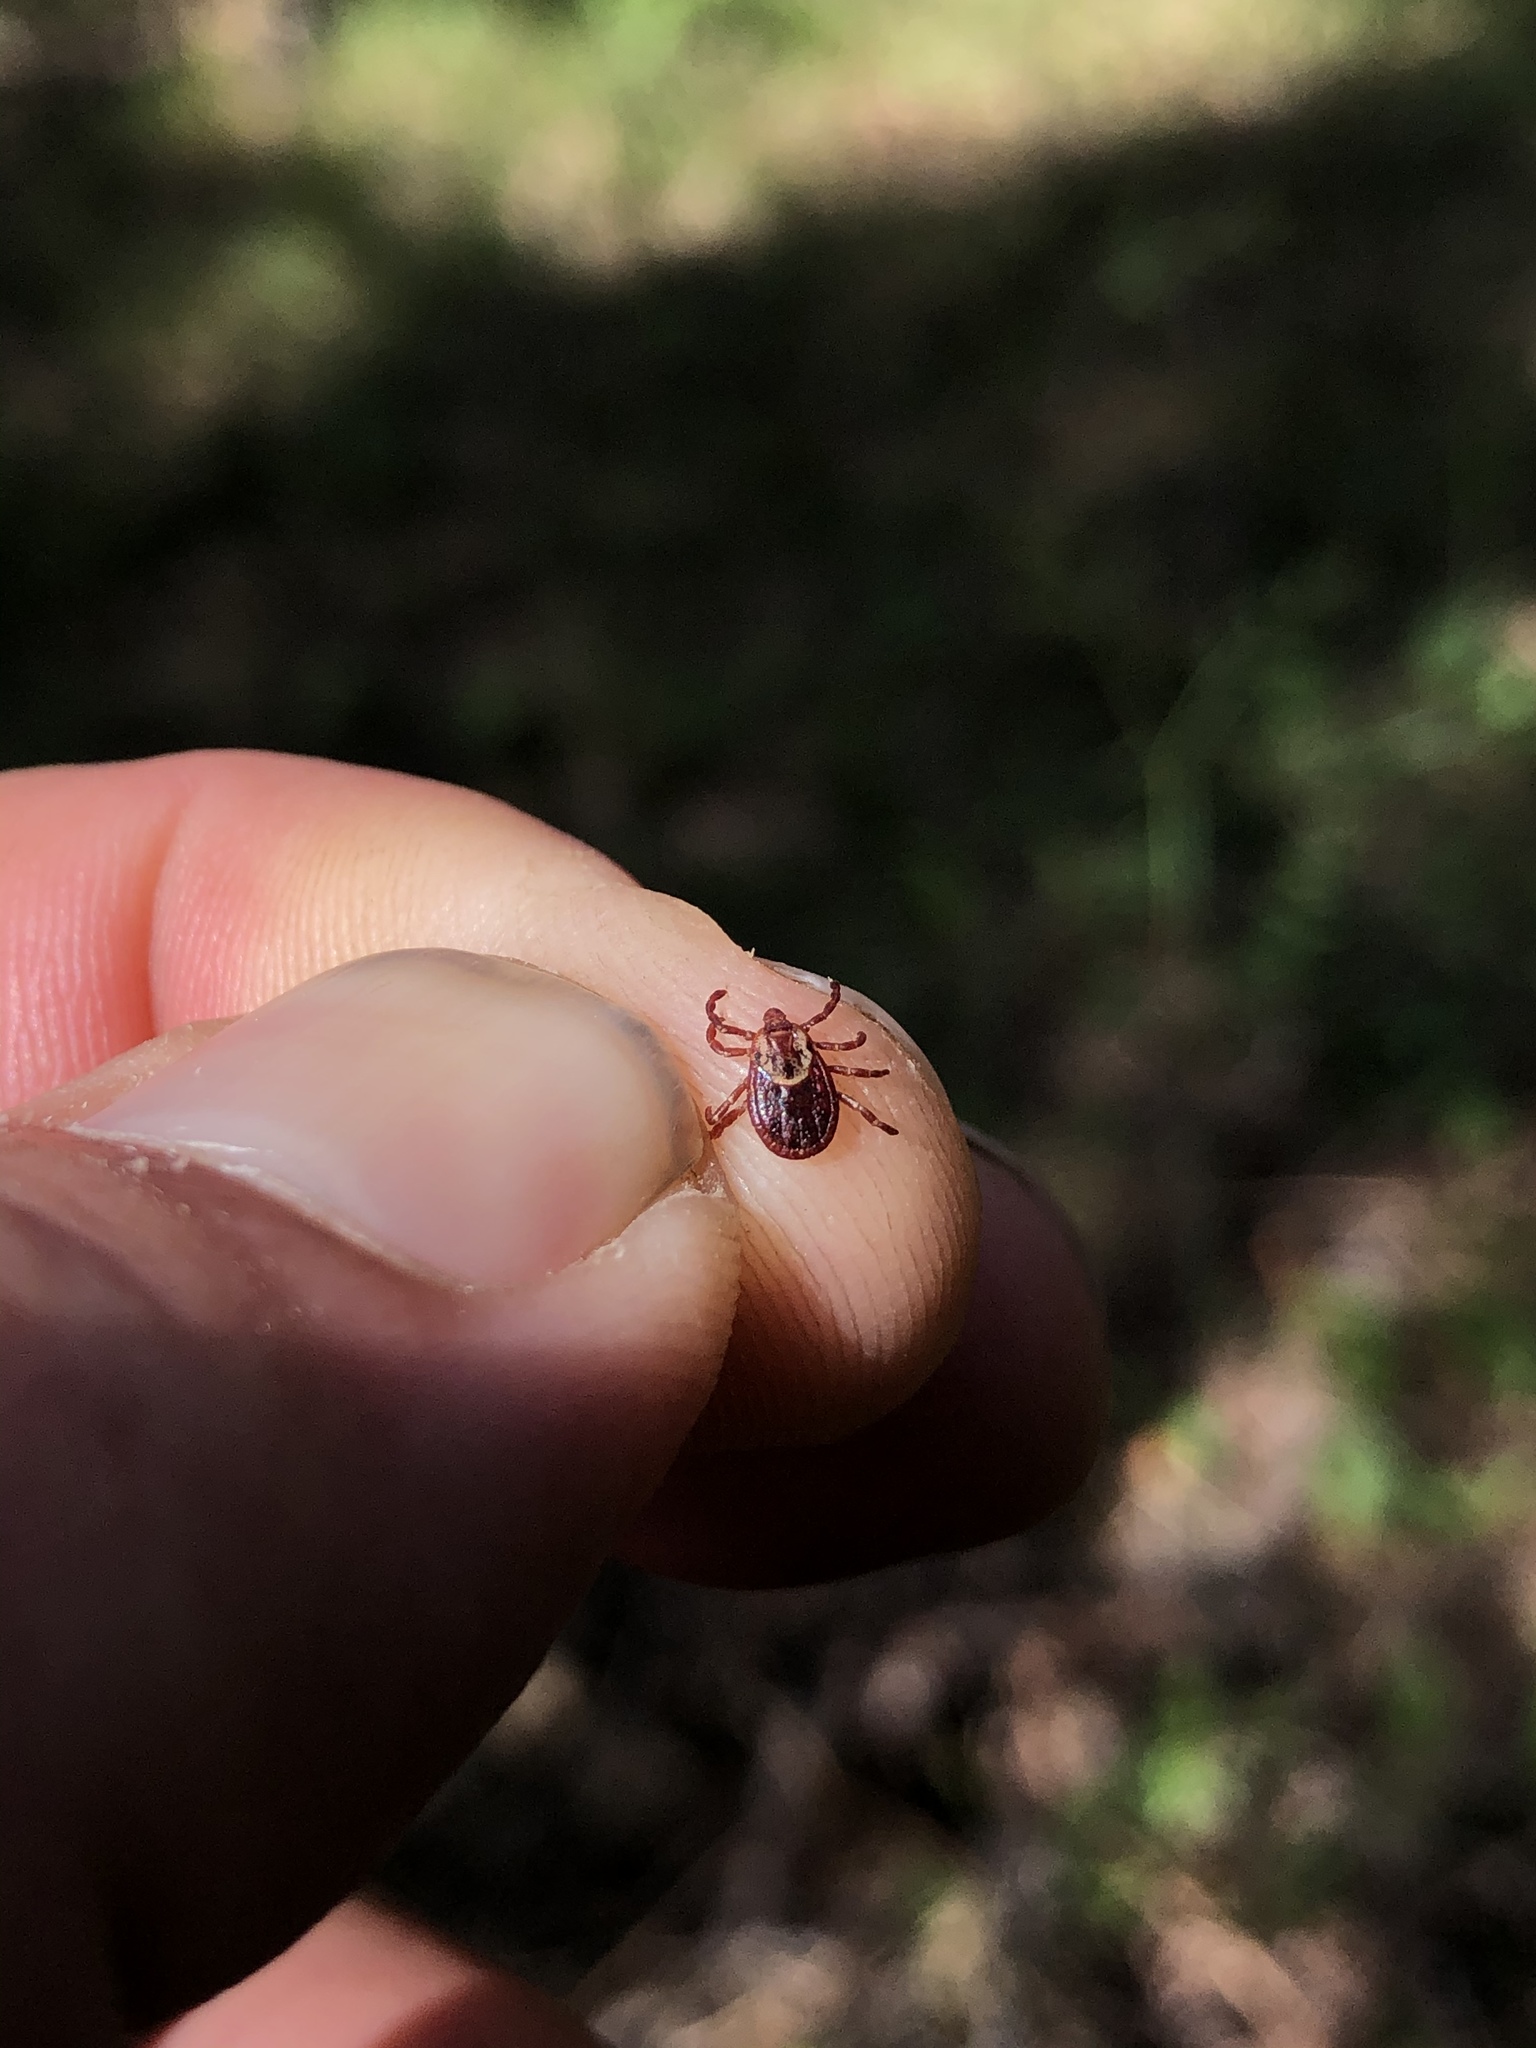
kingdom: Animalia
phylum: Arthropoda
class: Arachnida
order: Ixodida
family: Ixodidae
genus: Dermacentor
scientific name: Dermacentor variabilis
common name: American dog tick
